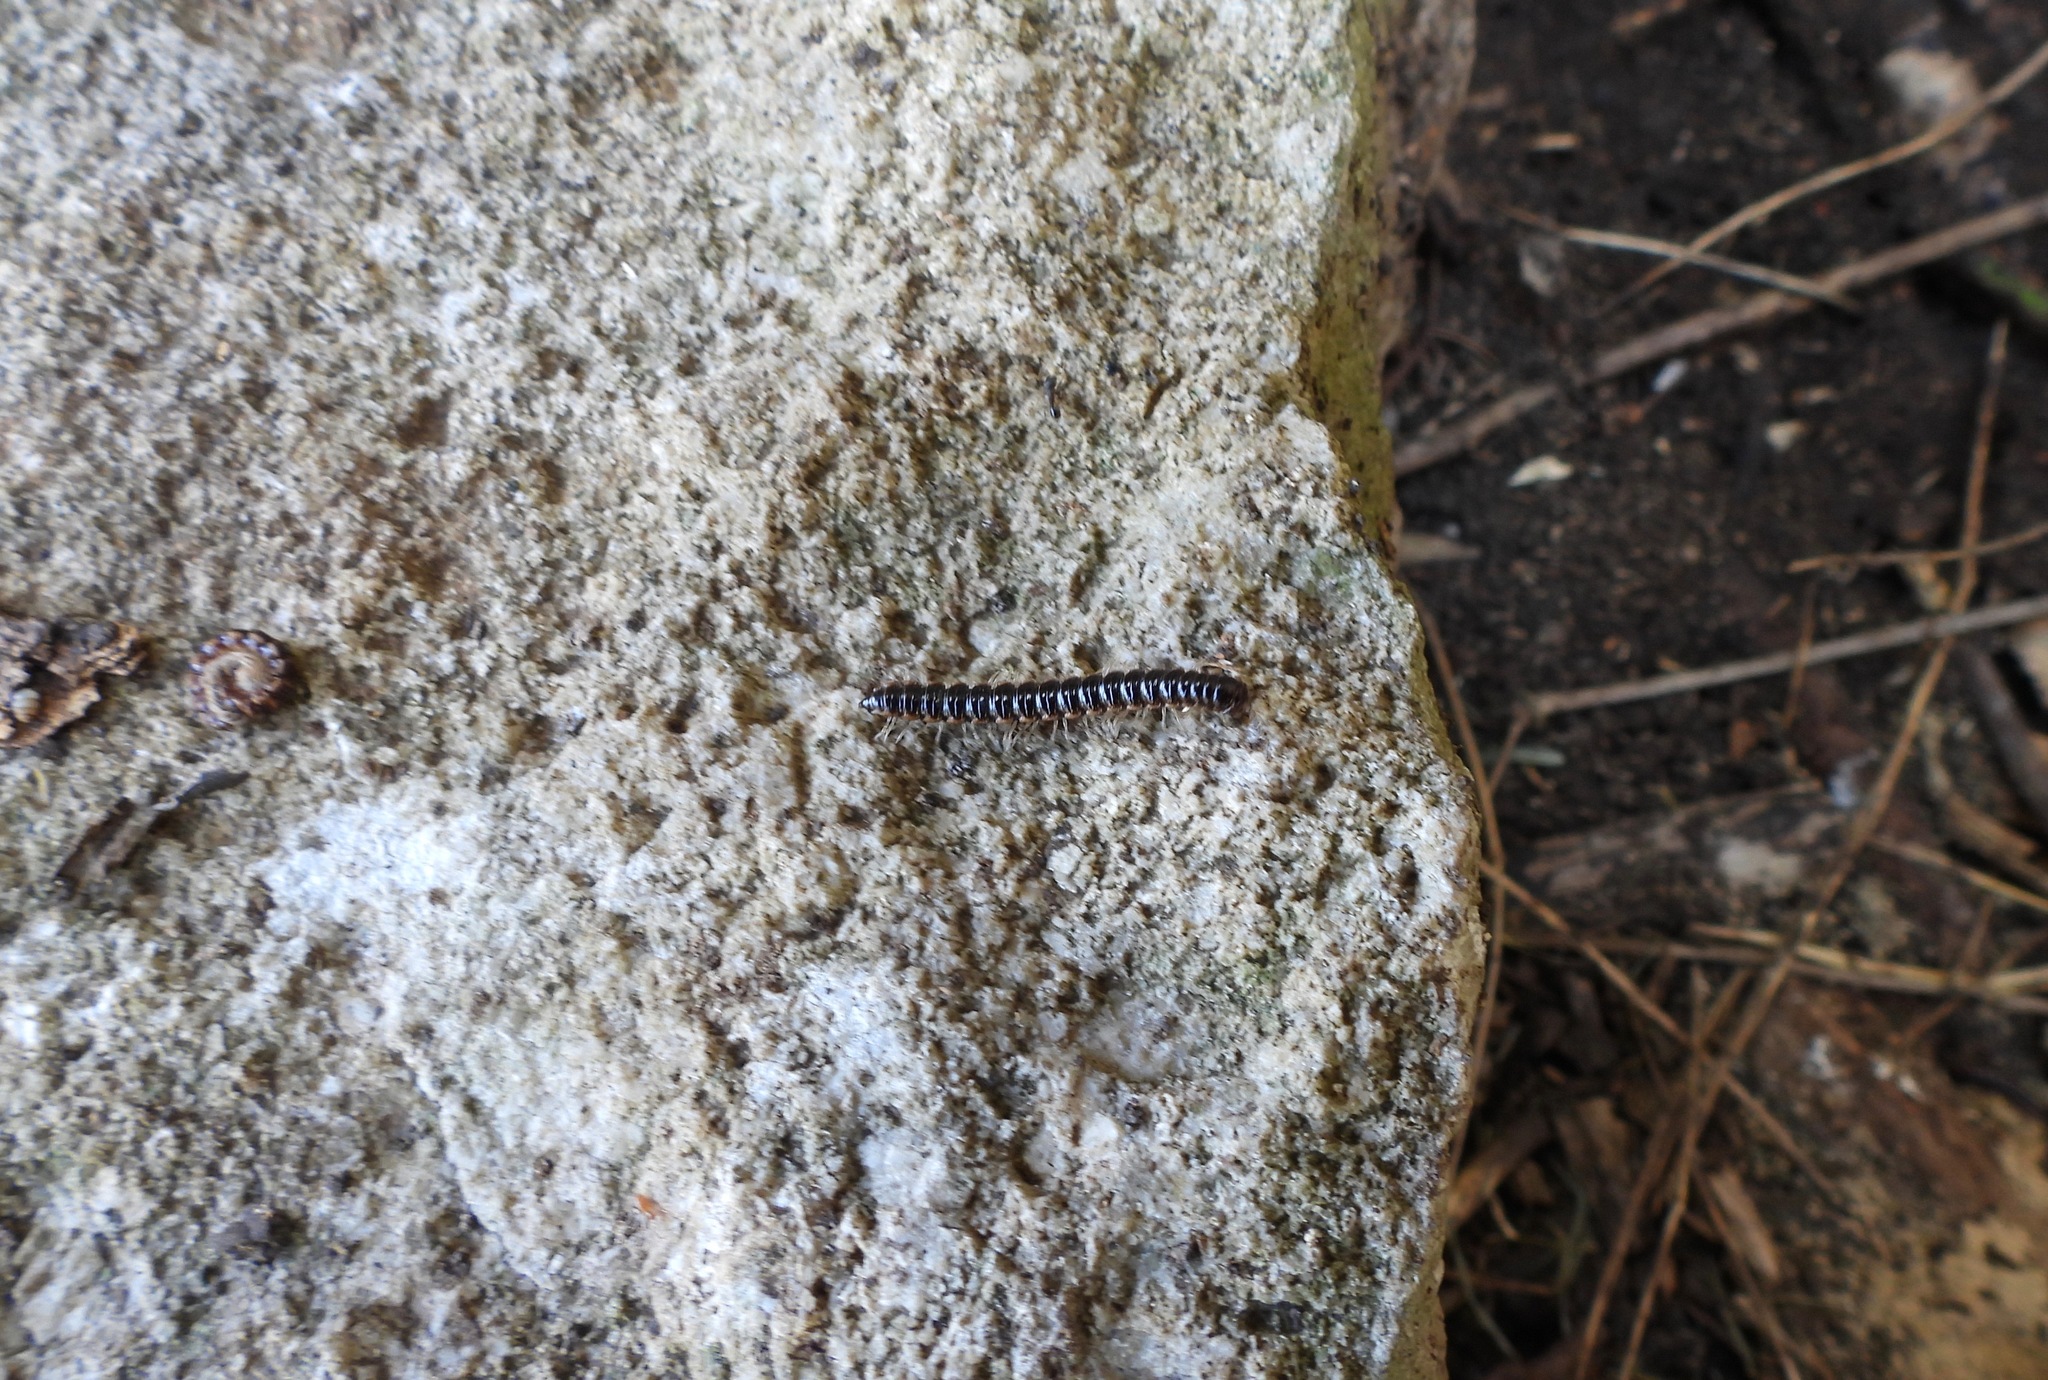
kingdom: Animalia
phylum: Arthropoda
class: Diplopoda
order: Polydesmida
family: Paradoxosomatidae
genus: Oxidus
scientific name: Oxidus gracilis
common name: Greenhouse millipede
